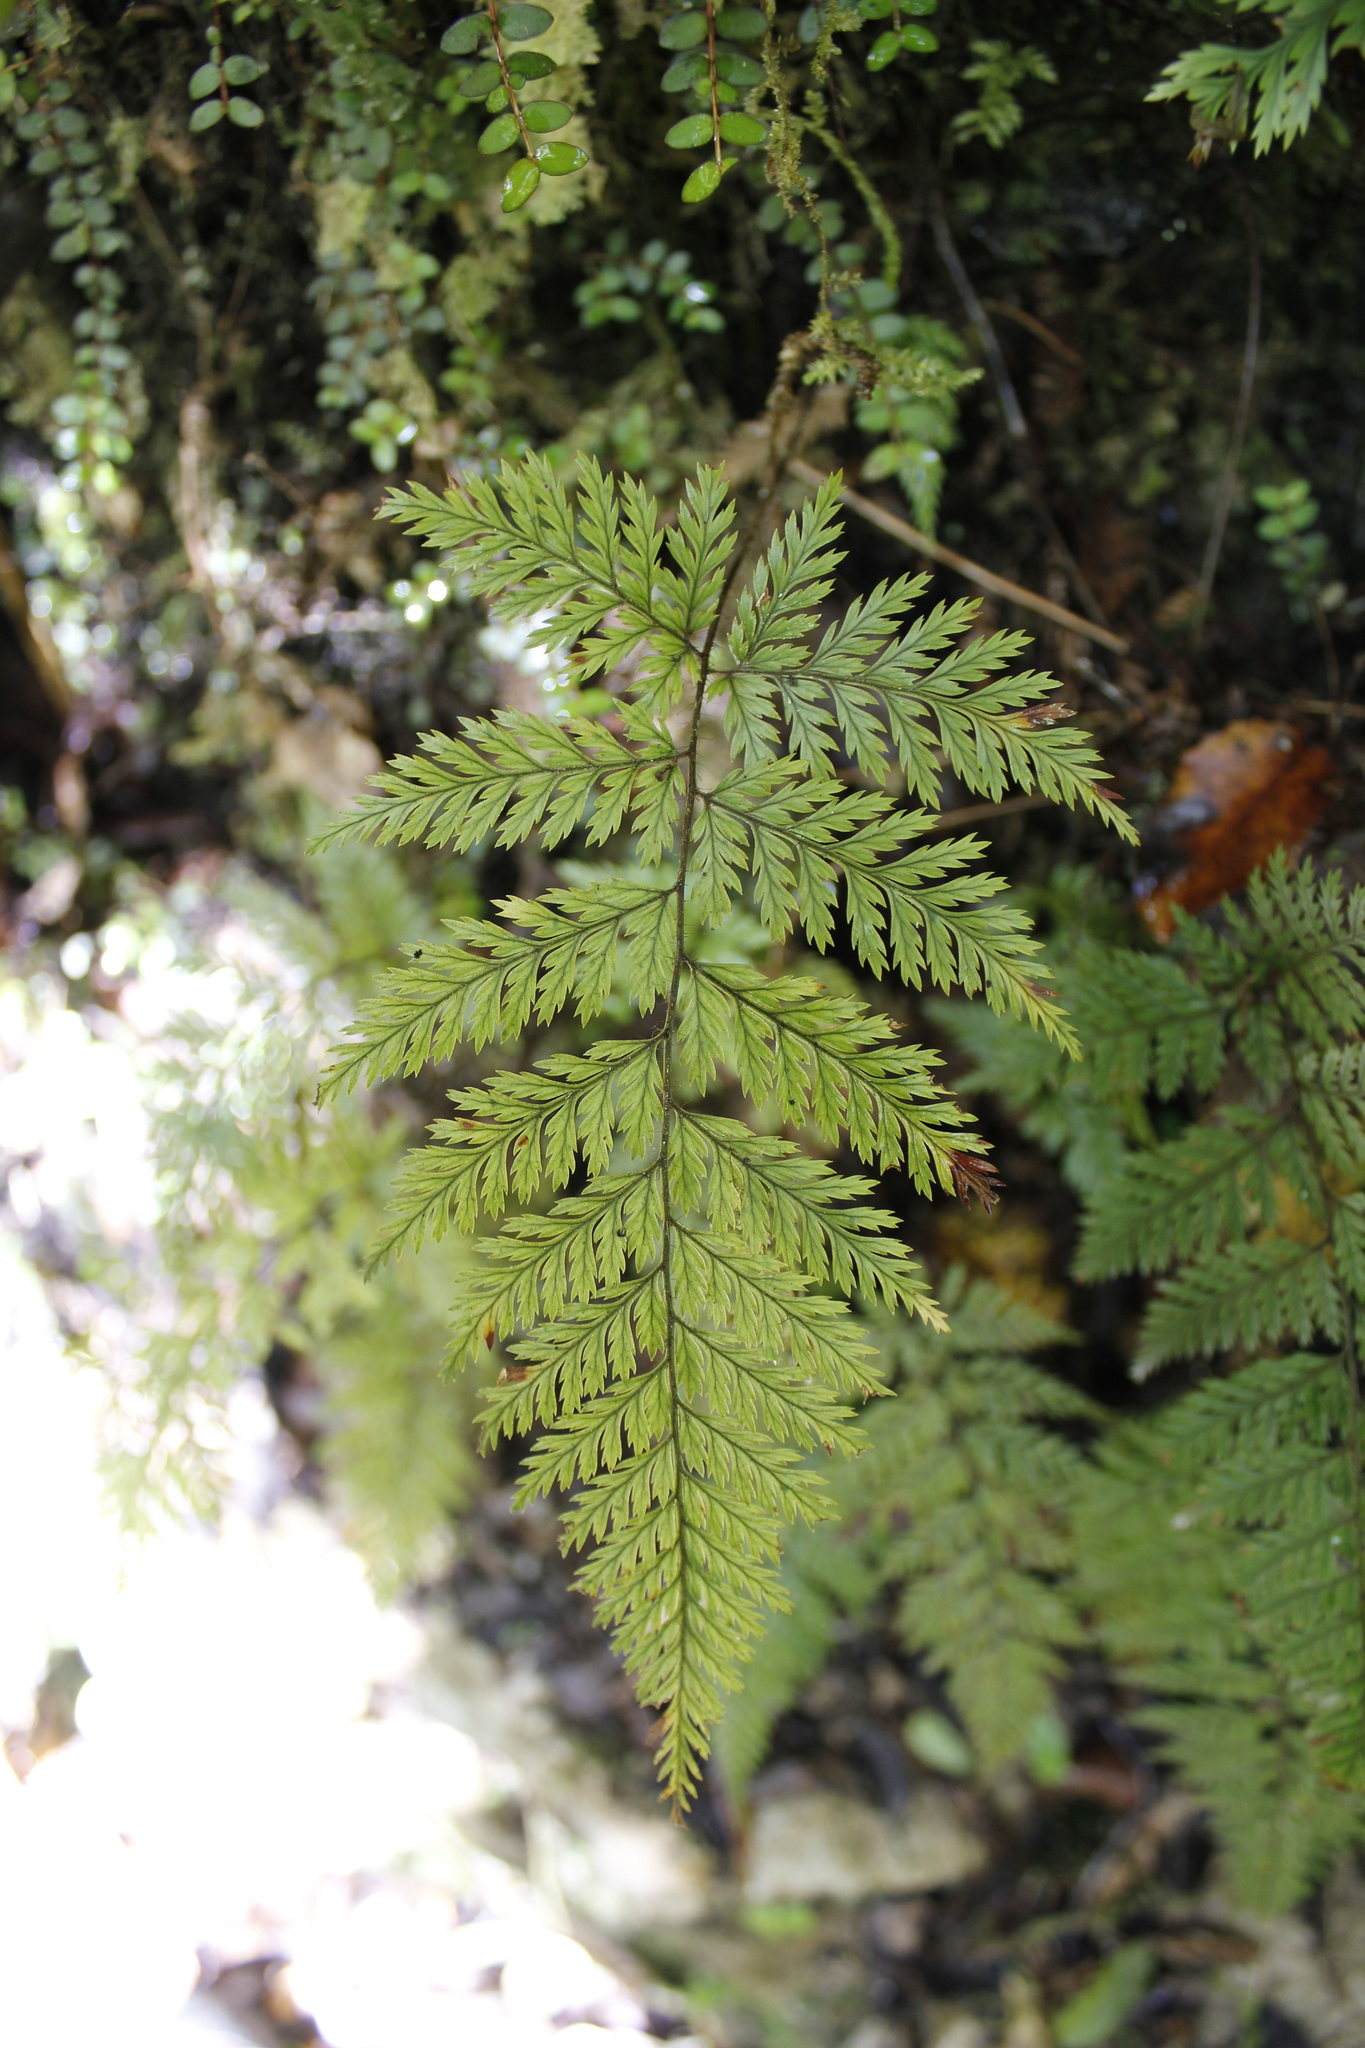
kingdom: Plantae
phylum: Tracheophyta
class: Polypodiopsida
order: Polypodiales
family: Dryopteridaceae
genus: Lastreopsis
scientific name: Lastreopsis hispida
